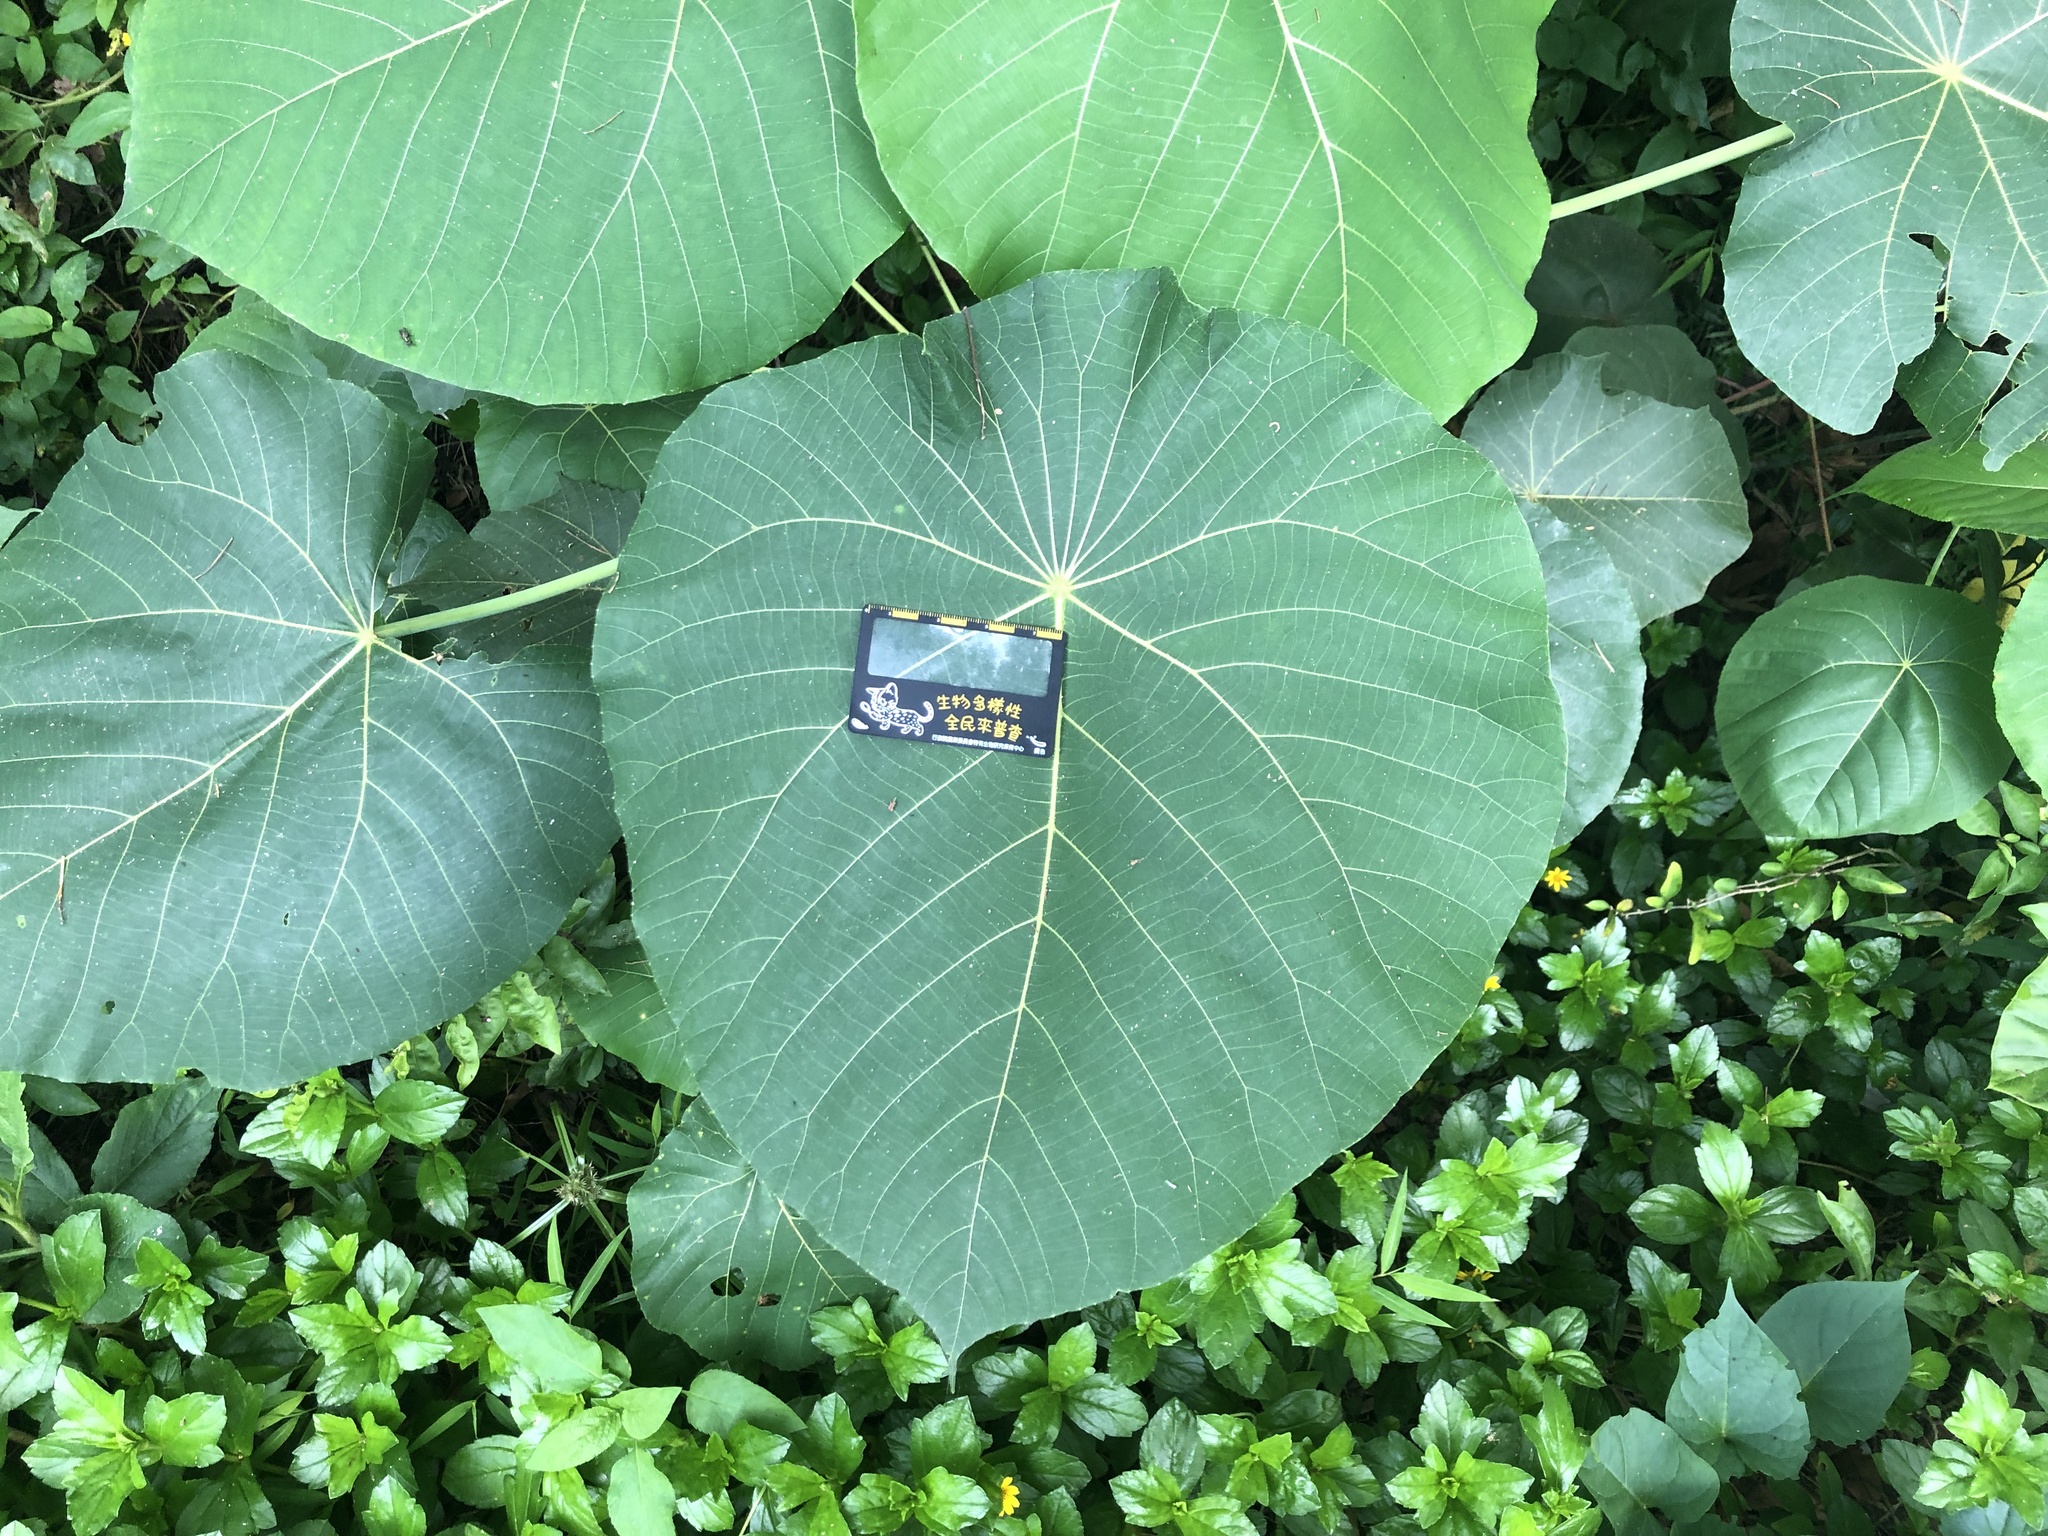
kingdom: Plantae
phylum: Tracheophyta
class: Magnoliopsida
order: Malpighiales
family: Euphorbiaceae
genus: Macaranga
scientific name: Macaranga tanarius
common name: Parasol leaf tree
